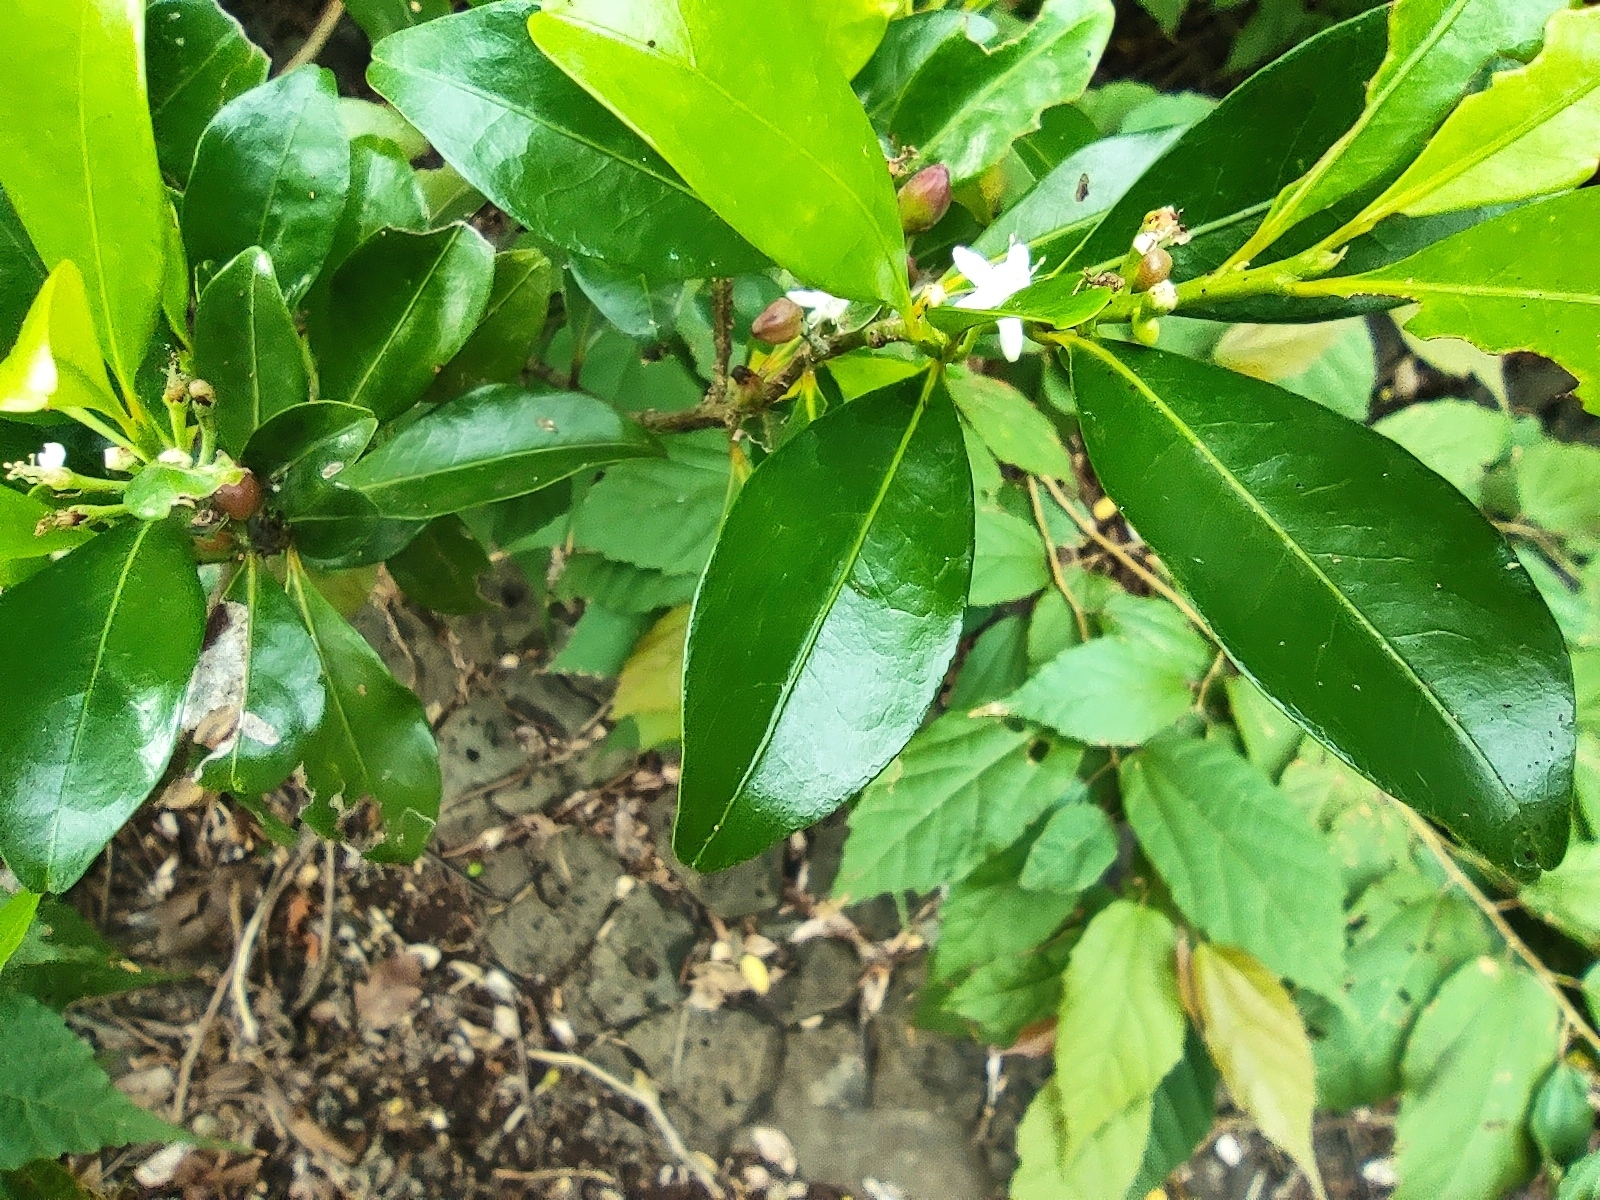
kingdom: Plantae
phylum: Tracheophyta
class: Magnoliopsida
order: Malpighiales
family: Erythroxylaceae
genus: Erythroxylum
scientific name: Erythroxylum lanceum
